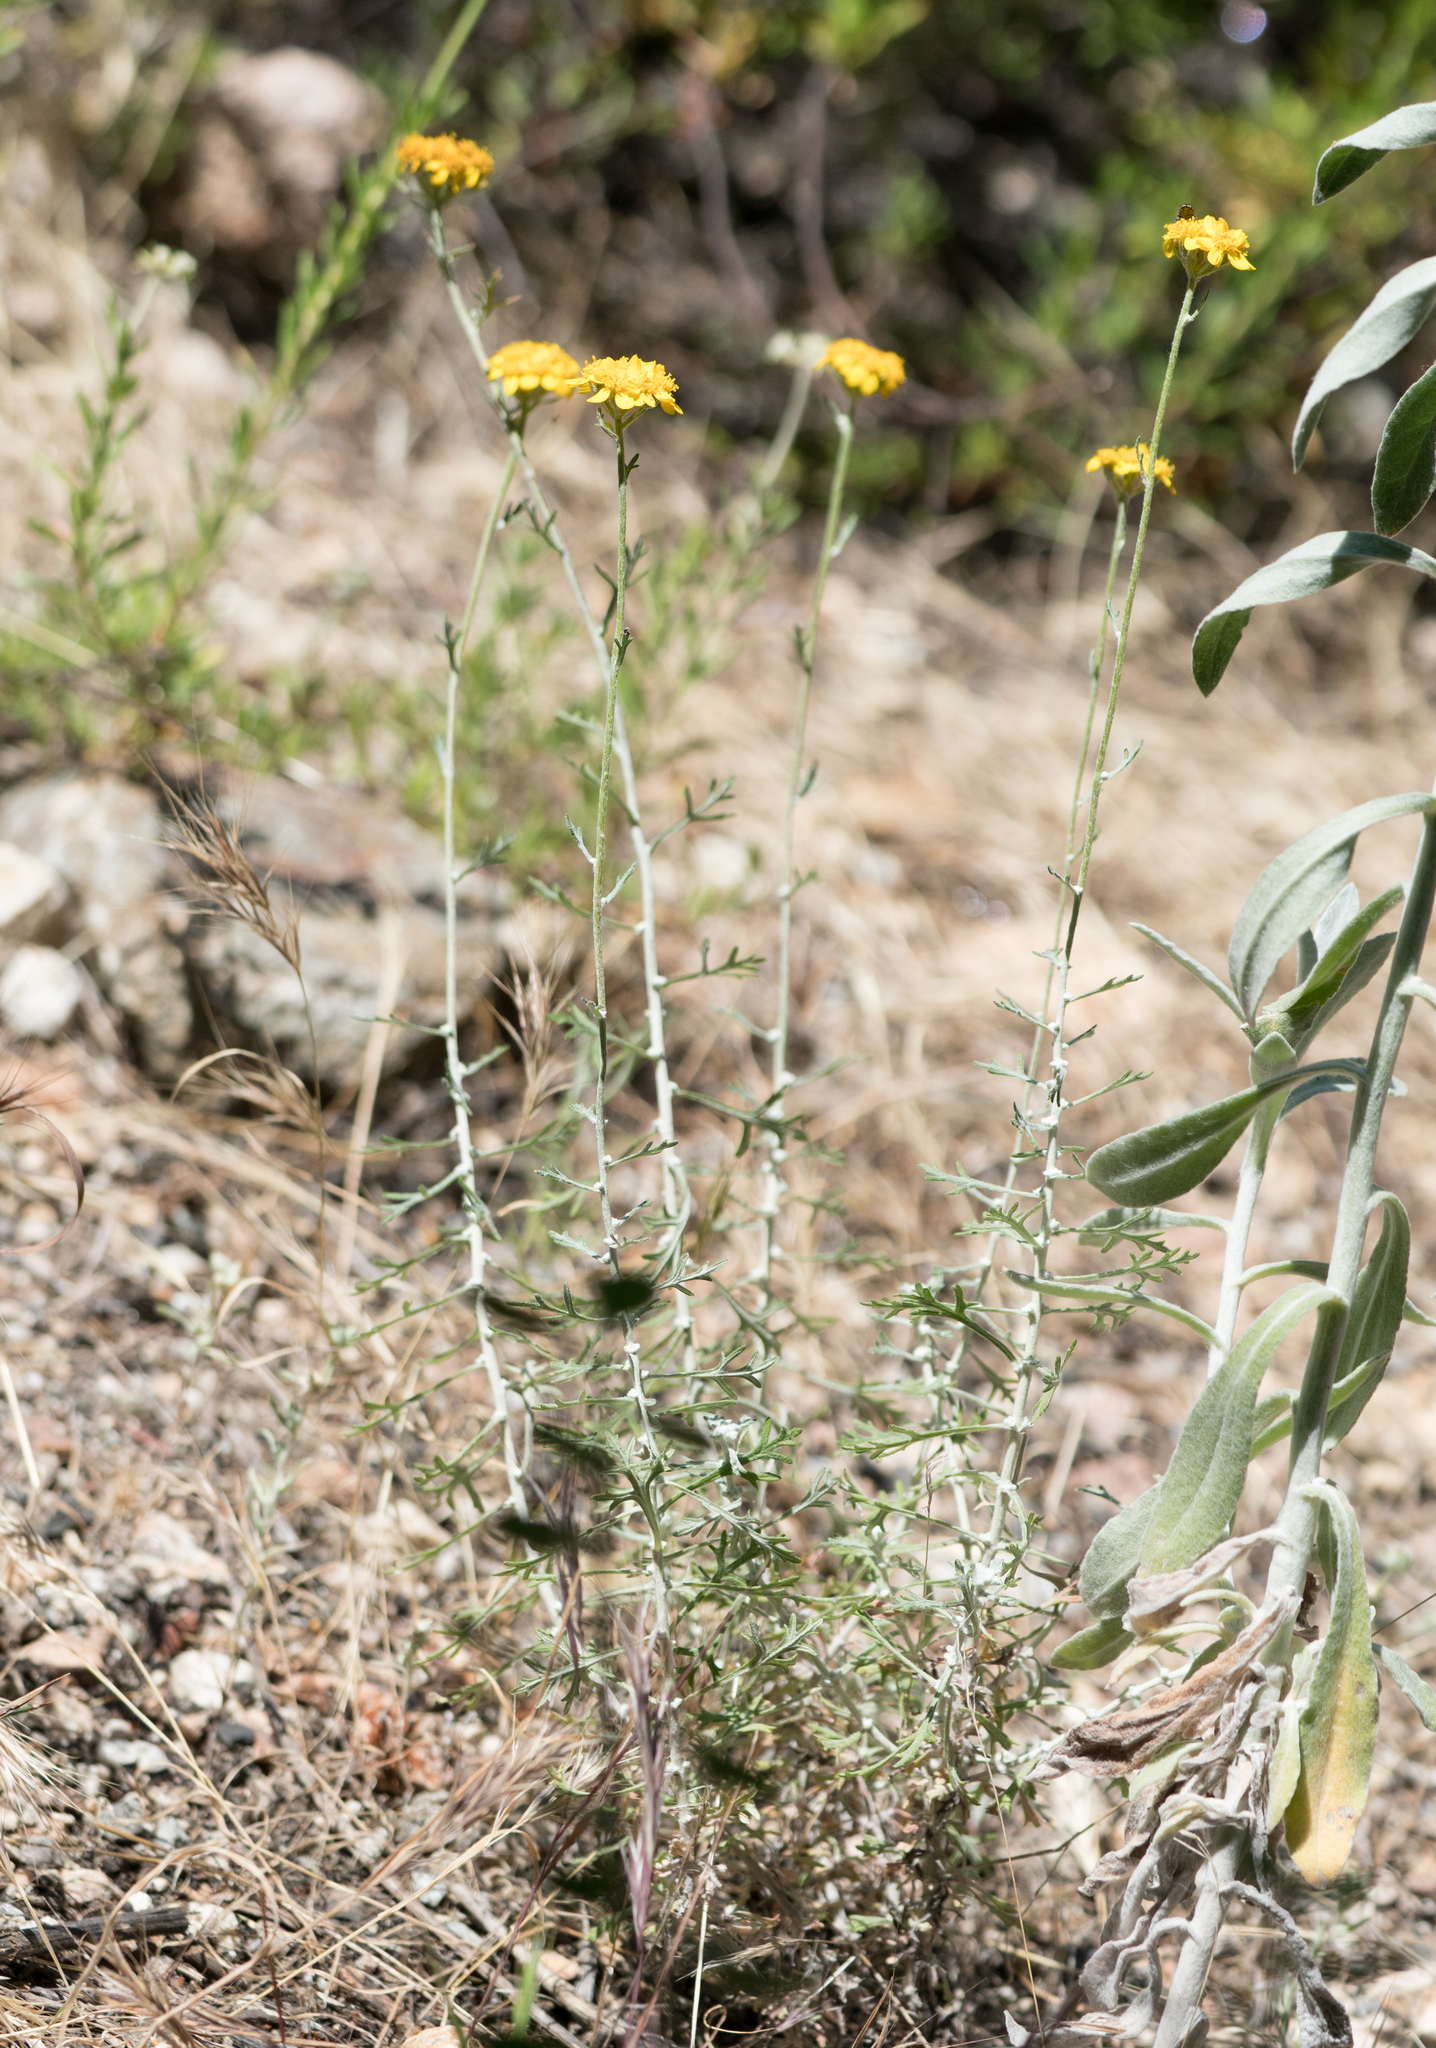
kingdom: Plantae
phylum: Tracheophyta
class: Magnoliopsida
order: Asterales
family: Asteraceae
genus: Eriophyllum
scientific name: Eriophyllum confertiflorum
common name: Golden-yarrow
